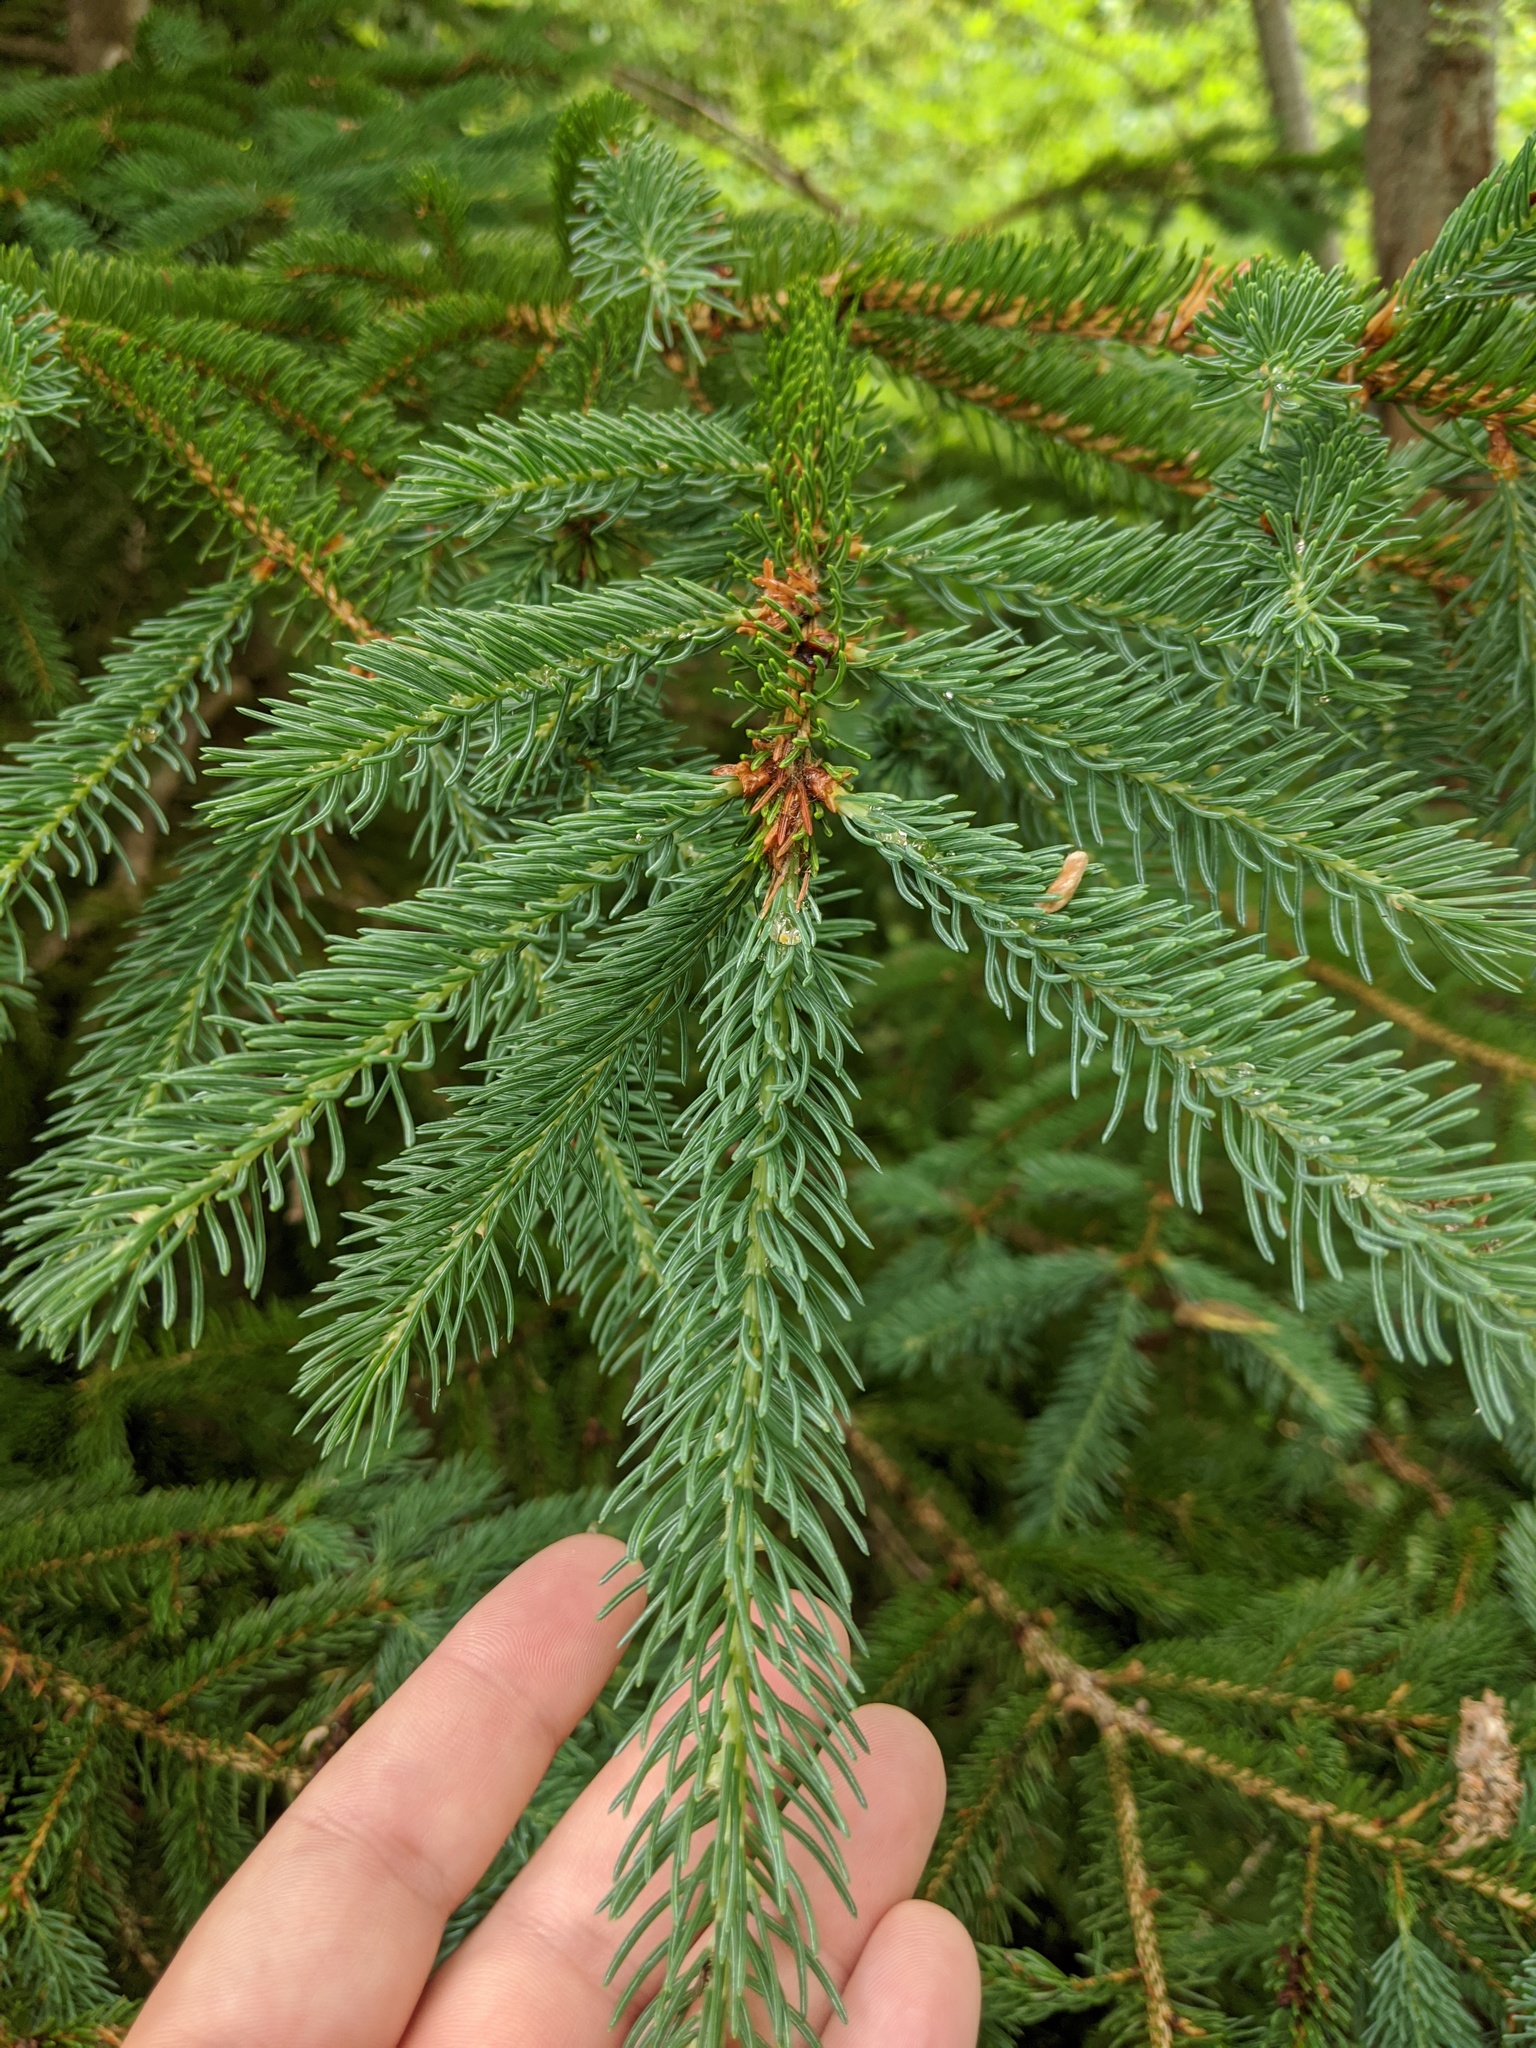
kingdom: Plantae
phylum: Tracheophyta
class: Pinopsida
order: Pinales
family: Pinaceae
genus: Picea
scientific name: Picea glauca
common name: White spruce
